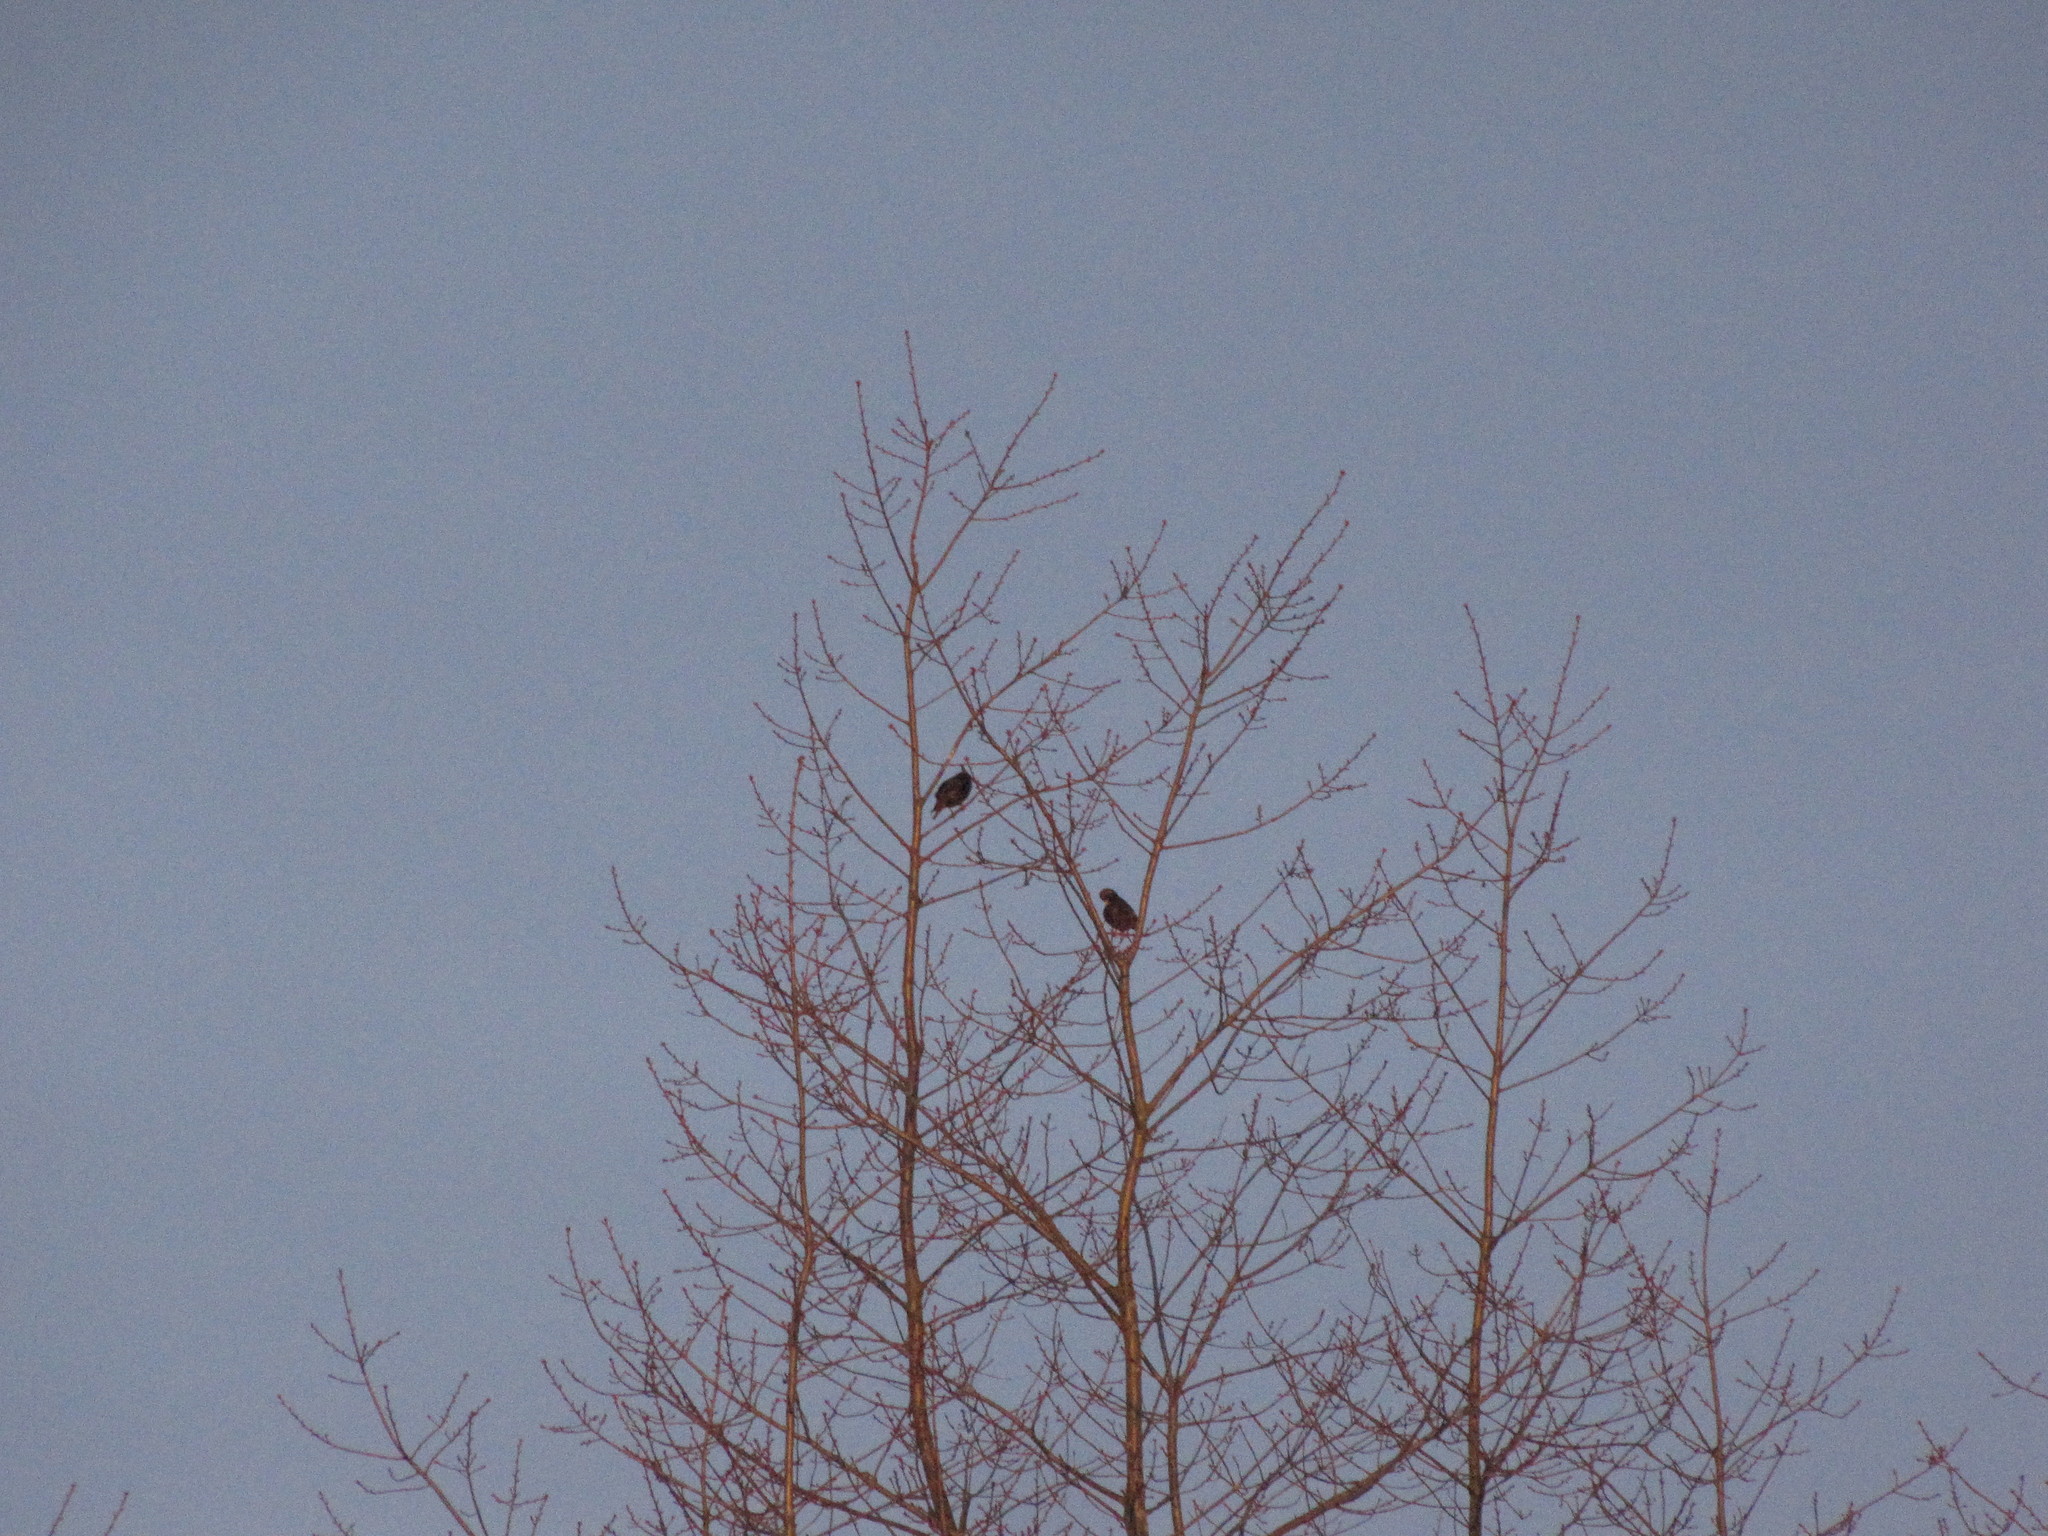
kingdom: Animalia
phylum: Chordata
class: Aves
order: Passeriformes
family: Sturnidae
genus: Sturnus
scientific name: Sturnus vulgaris
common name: Common starling
